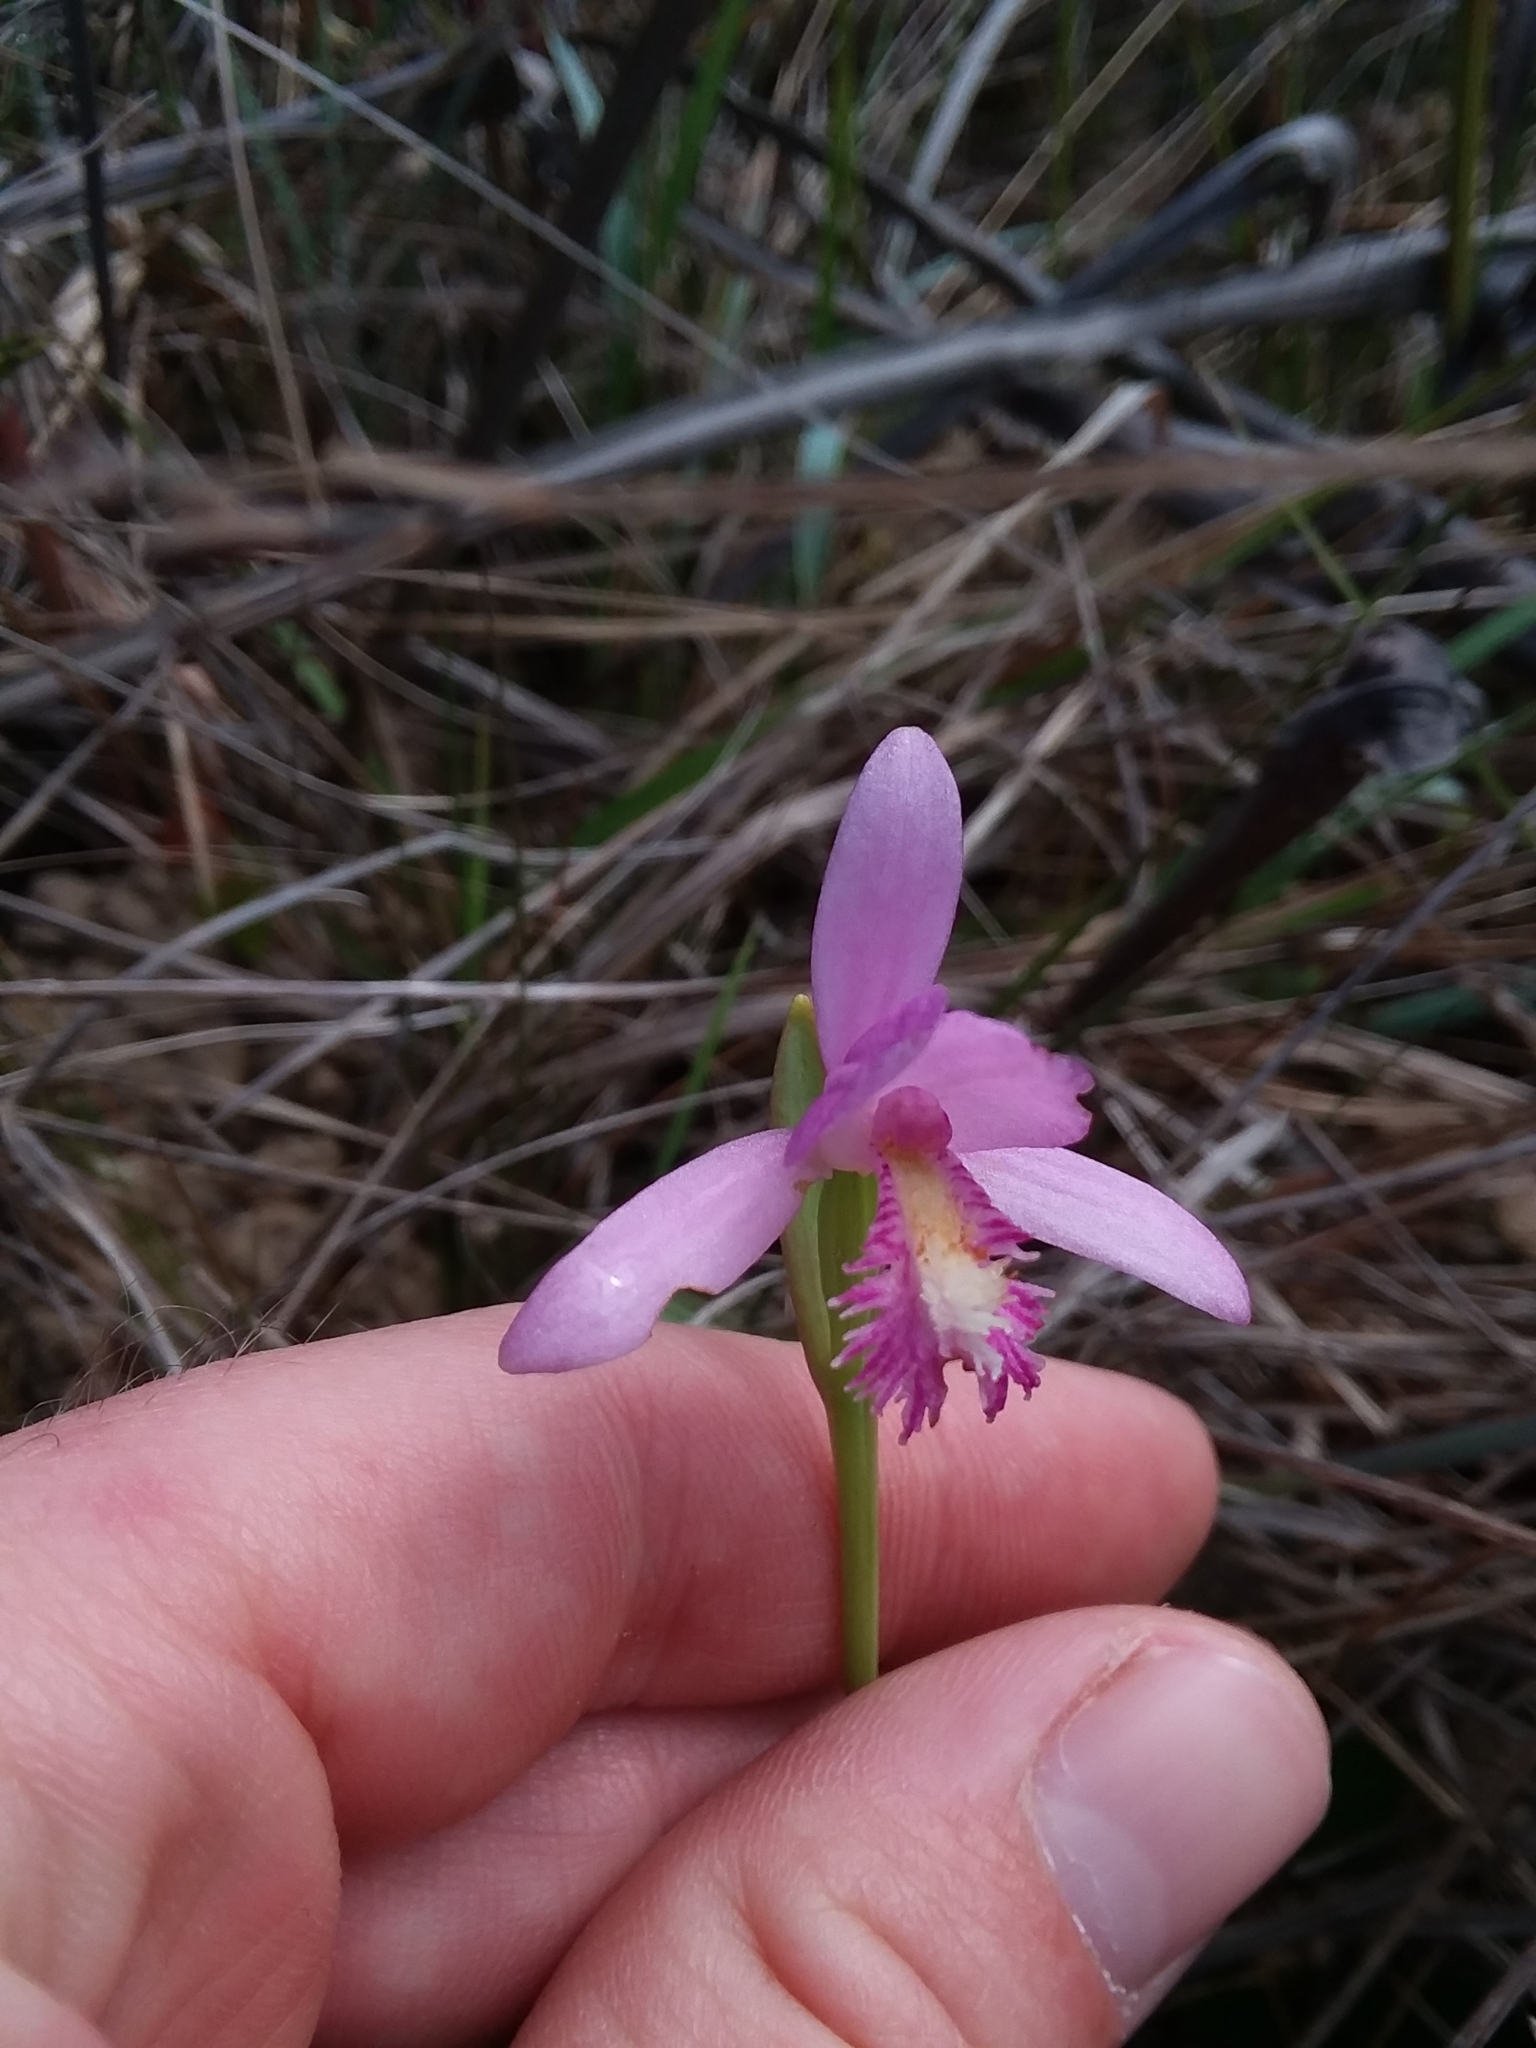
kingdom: Plantae
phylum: Tracheophyta
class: Liliopsida
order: Asparagales
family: Orchidaceae
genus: Pogonia
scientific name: Pogonia ophioglossoides
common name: Rose pogonia
